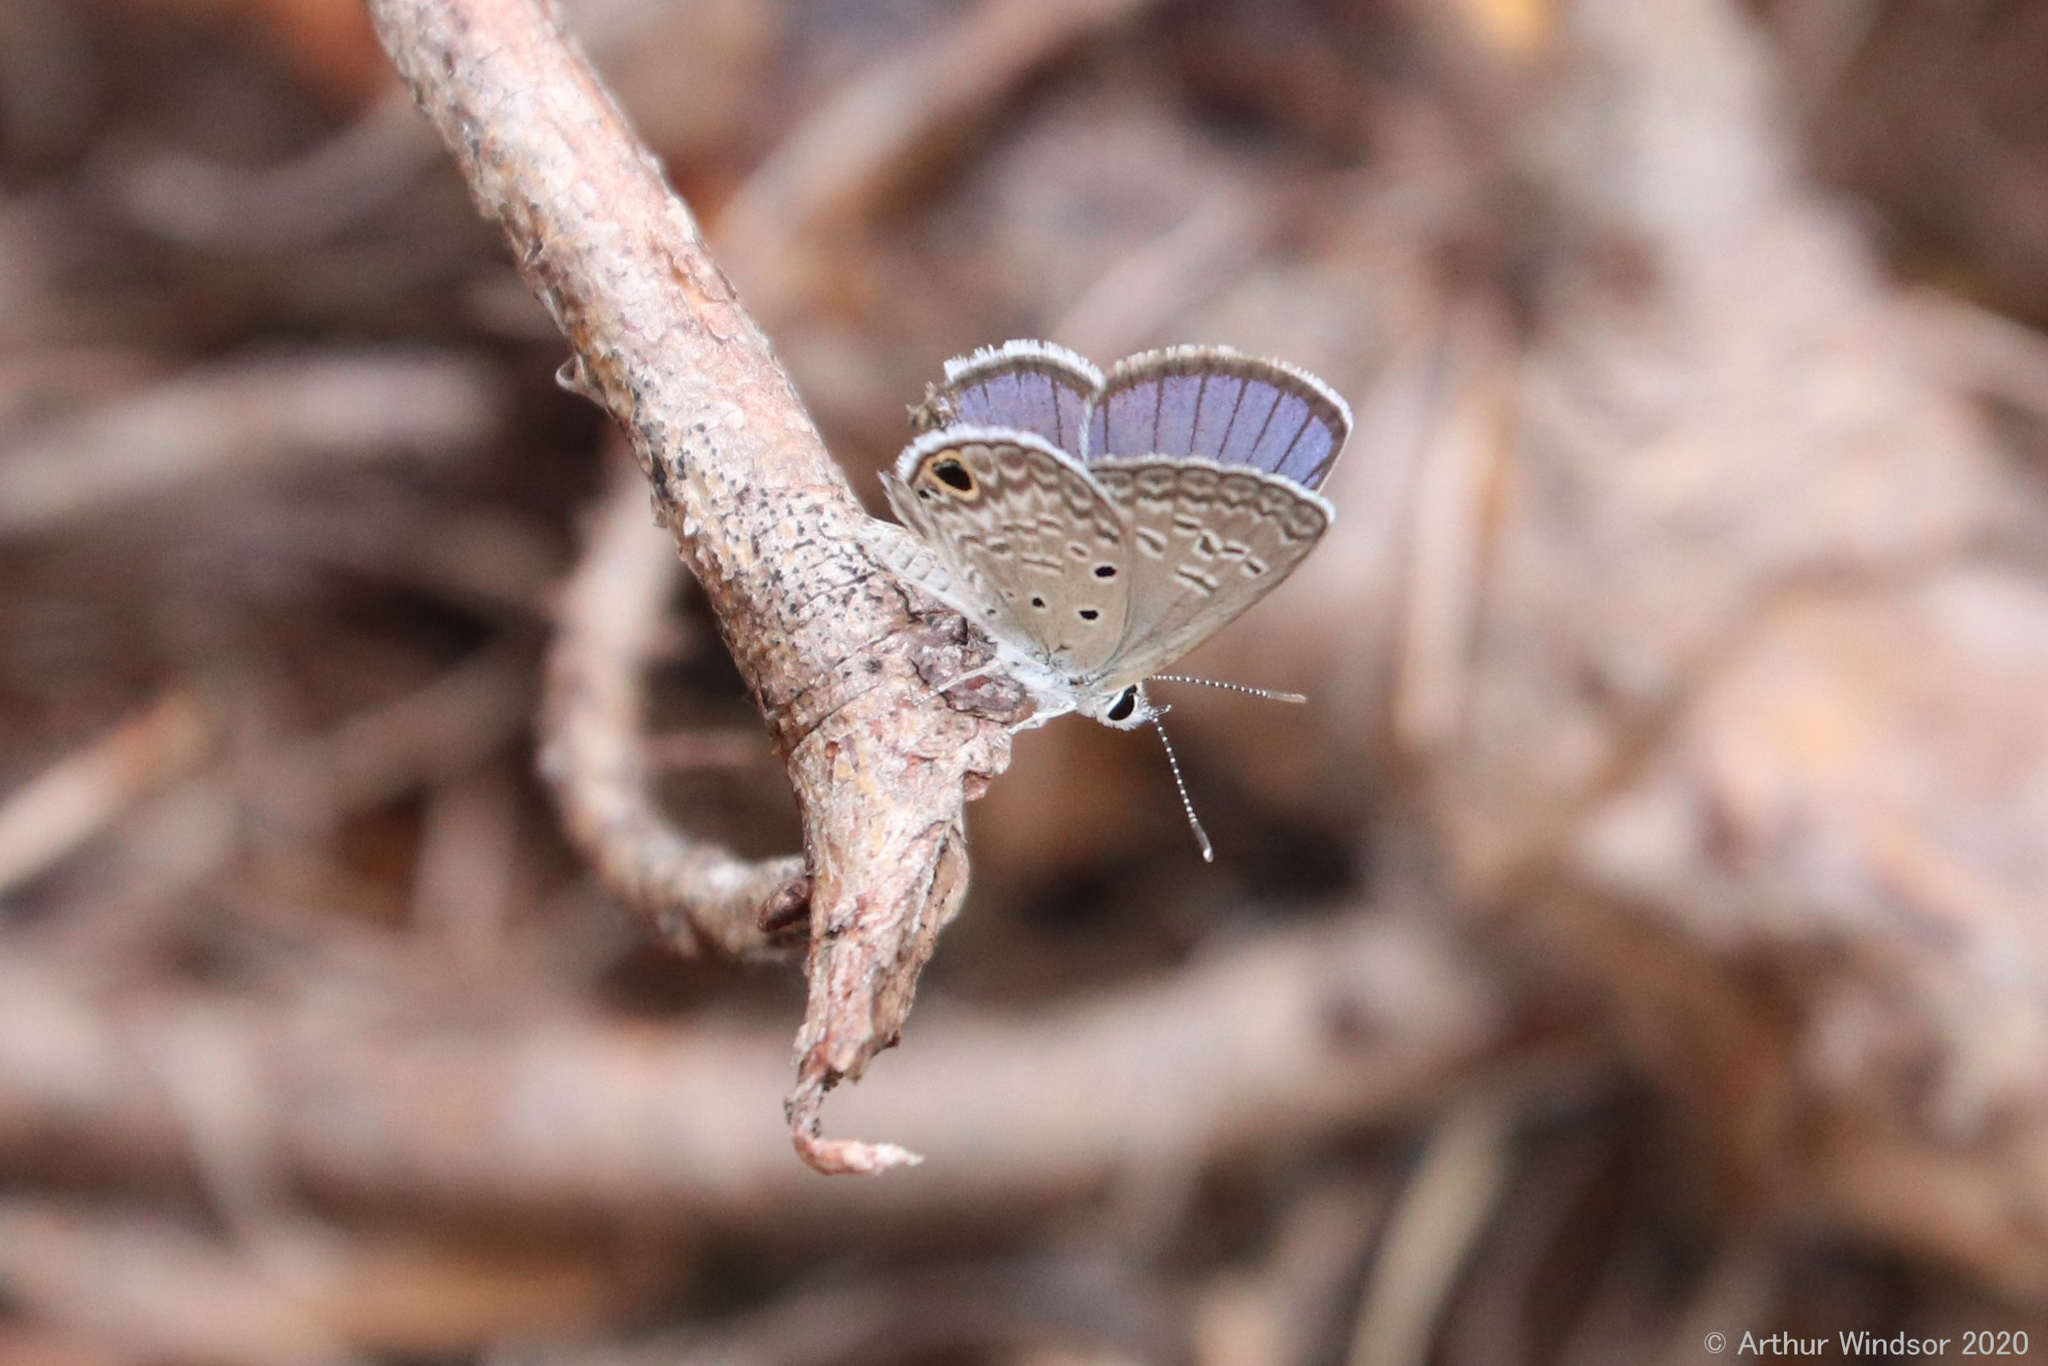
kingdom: Animalia
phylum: Arthropoda
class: Insecta
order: Lepidoptera
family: Lycaenidae
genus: Hemiargus
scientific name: Hemiargus ceraunus
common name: Ceraunus blue
